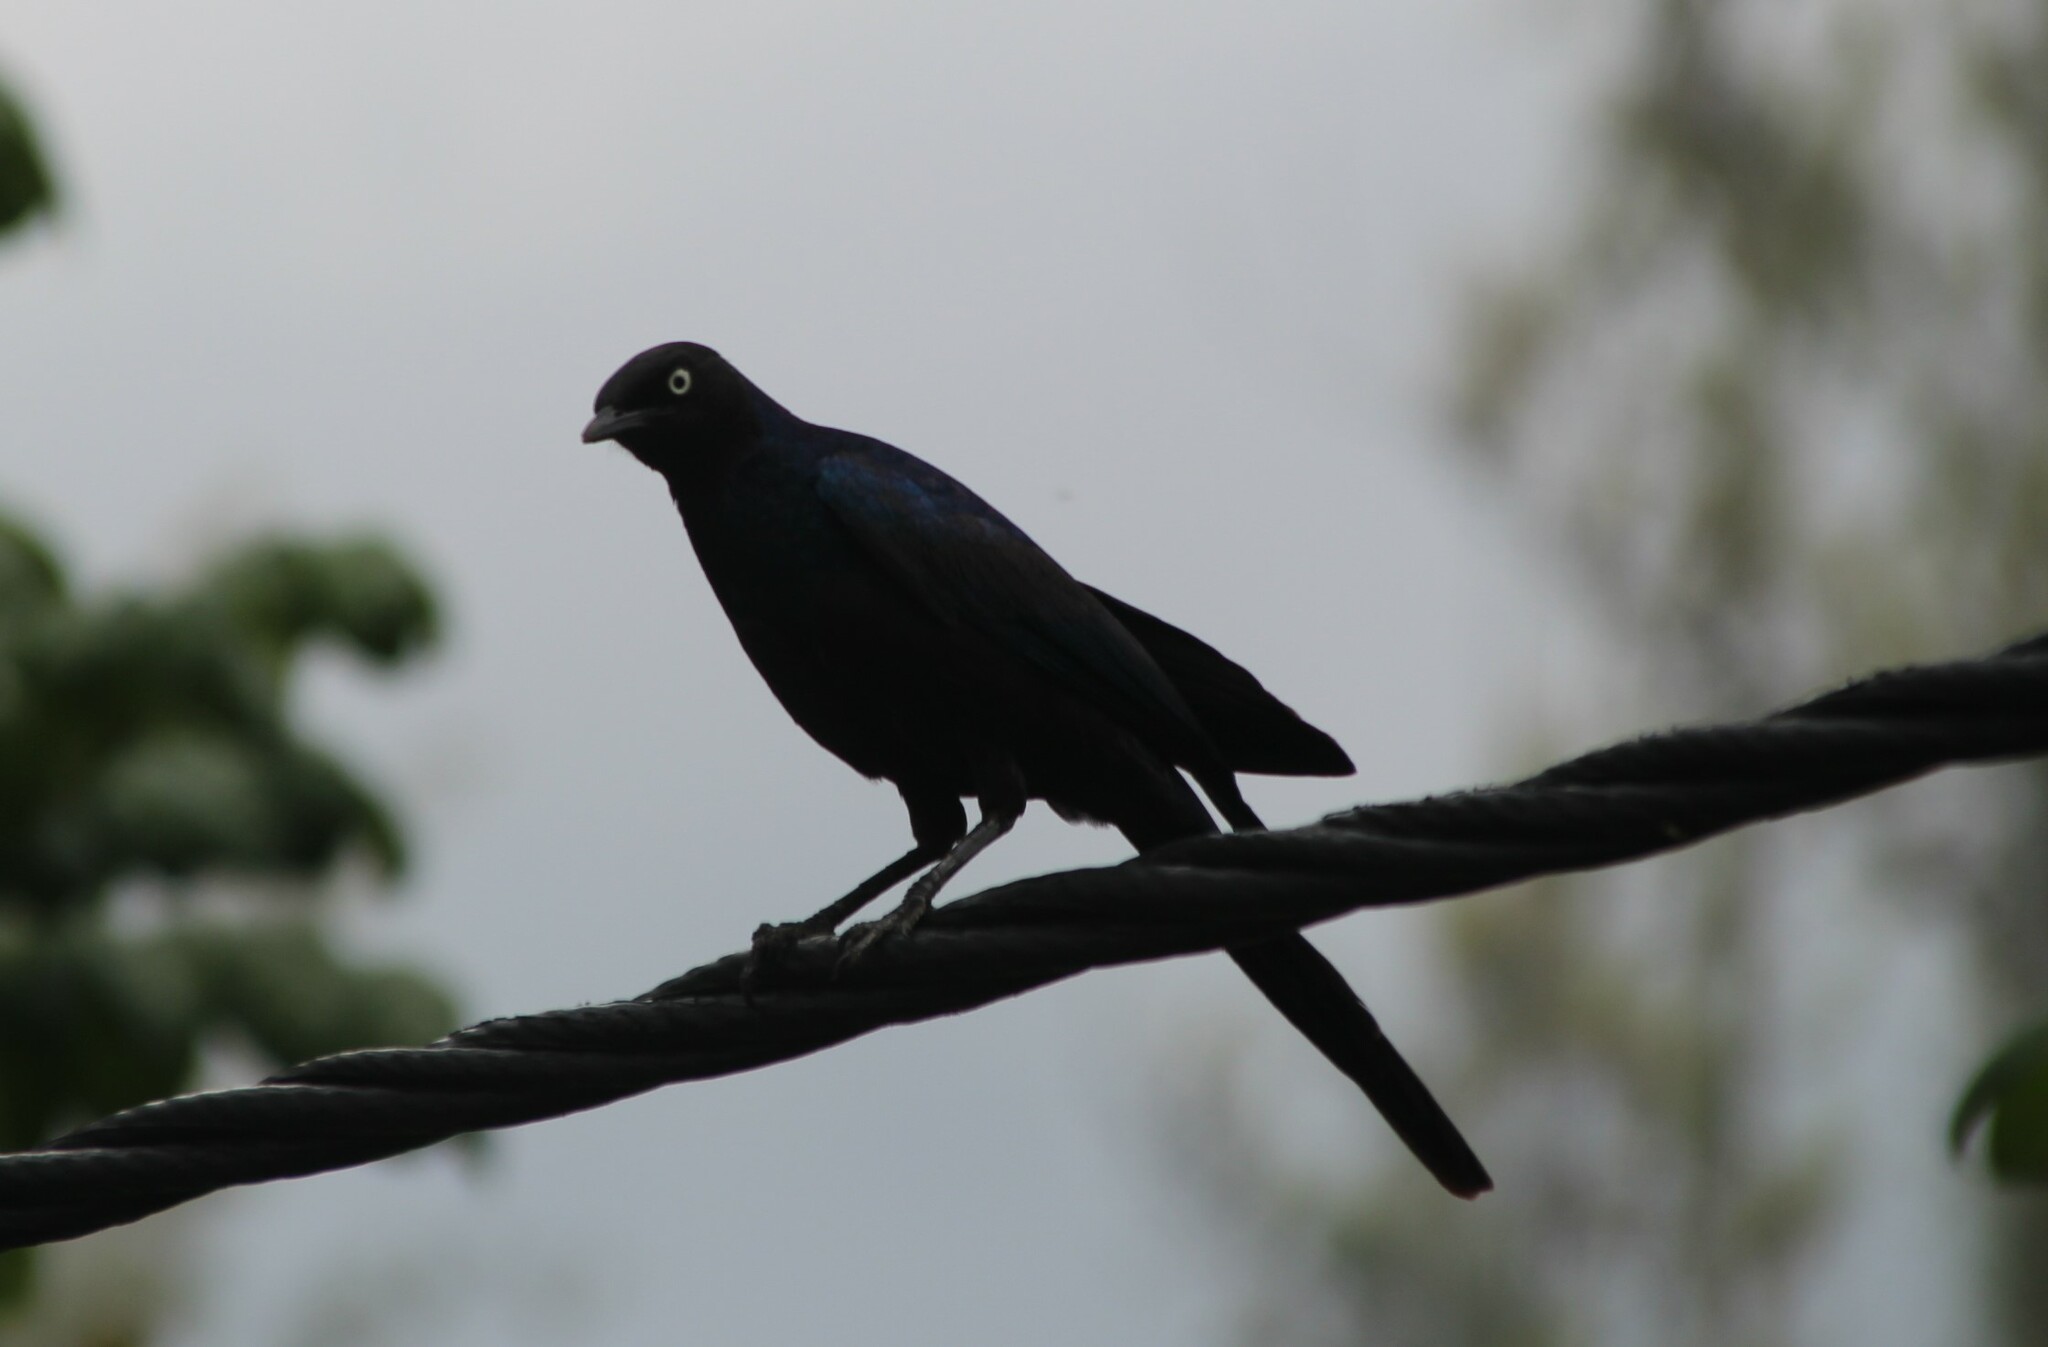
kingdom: Animalia
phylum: Chordata
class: Aves
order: Passeriformes
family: Sturnidae
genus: Lamprotornis
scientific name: Lamprotornis purpuroptera
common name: Rüppell's starling
